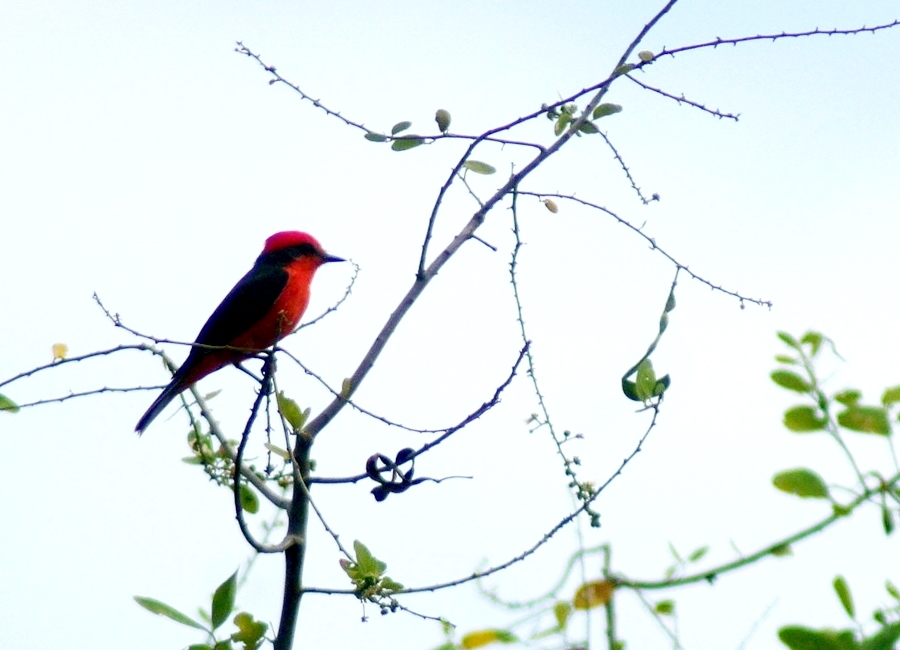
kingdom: Animalia
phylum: Chordata
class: Aves
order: Passeriformes
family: Tyrannidae
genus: Pyrocephalus
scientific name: Pyrocephalus rubinus
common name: Vermilion flycatcher
